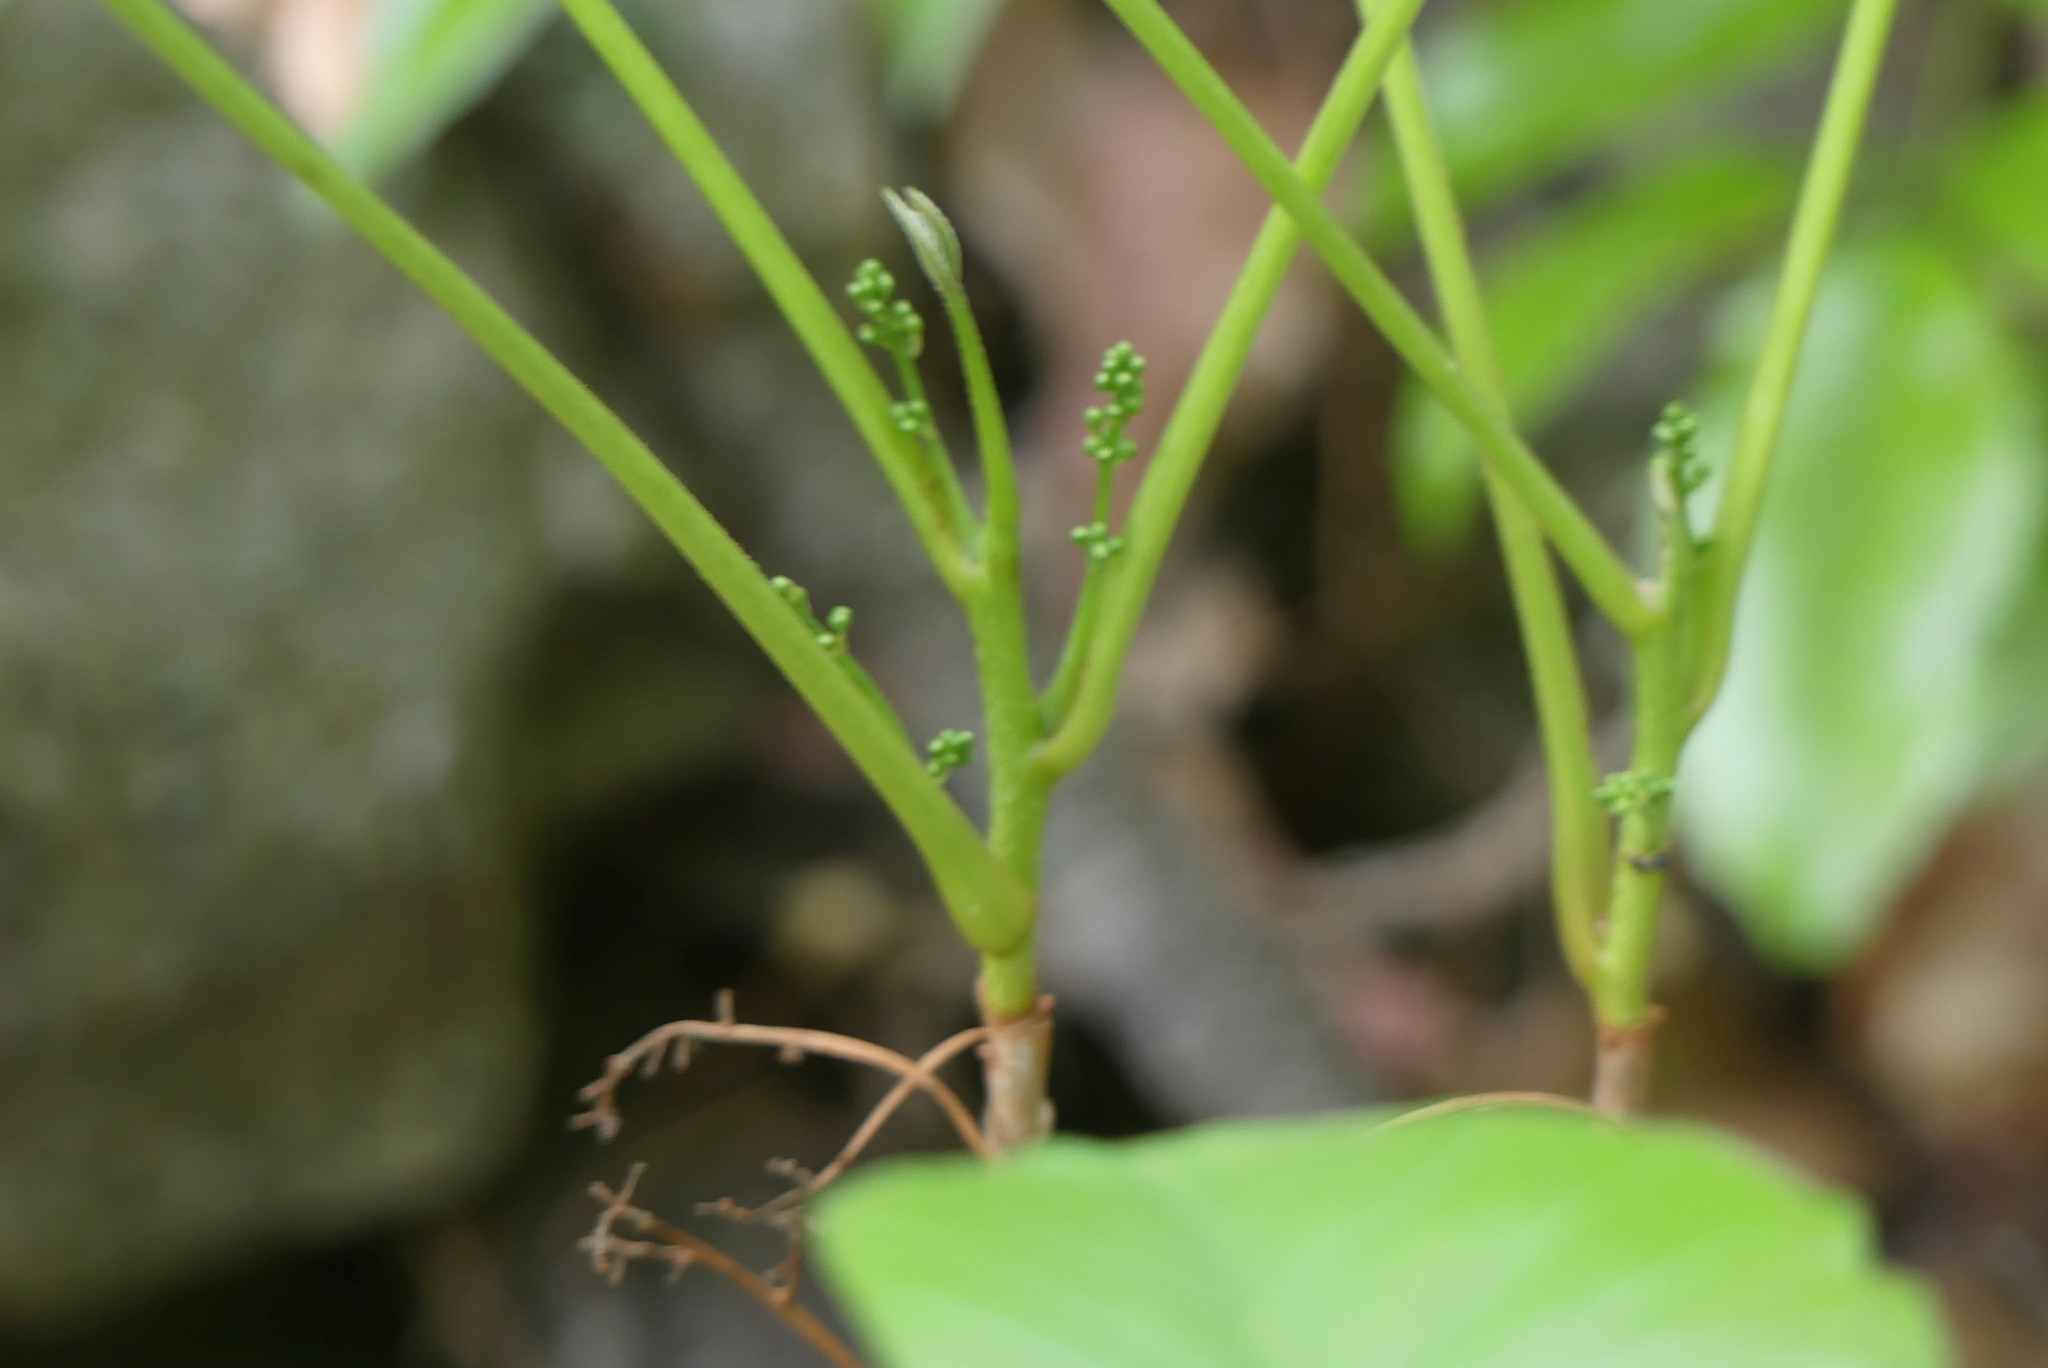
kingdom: Plantae
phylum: Tracheophyta
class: Magnoliopsida
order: Sapindales
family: Anacardiaceae
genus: Toxicodendron
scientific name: Toxicodendron rydbergii
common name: Rydberg's poison-ivy
